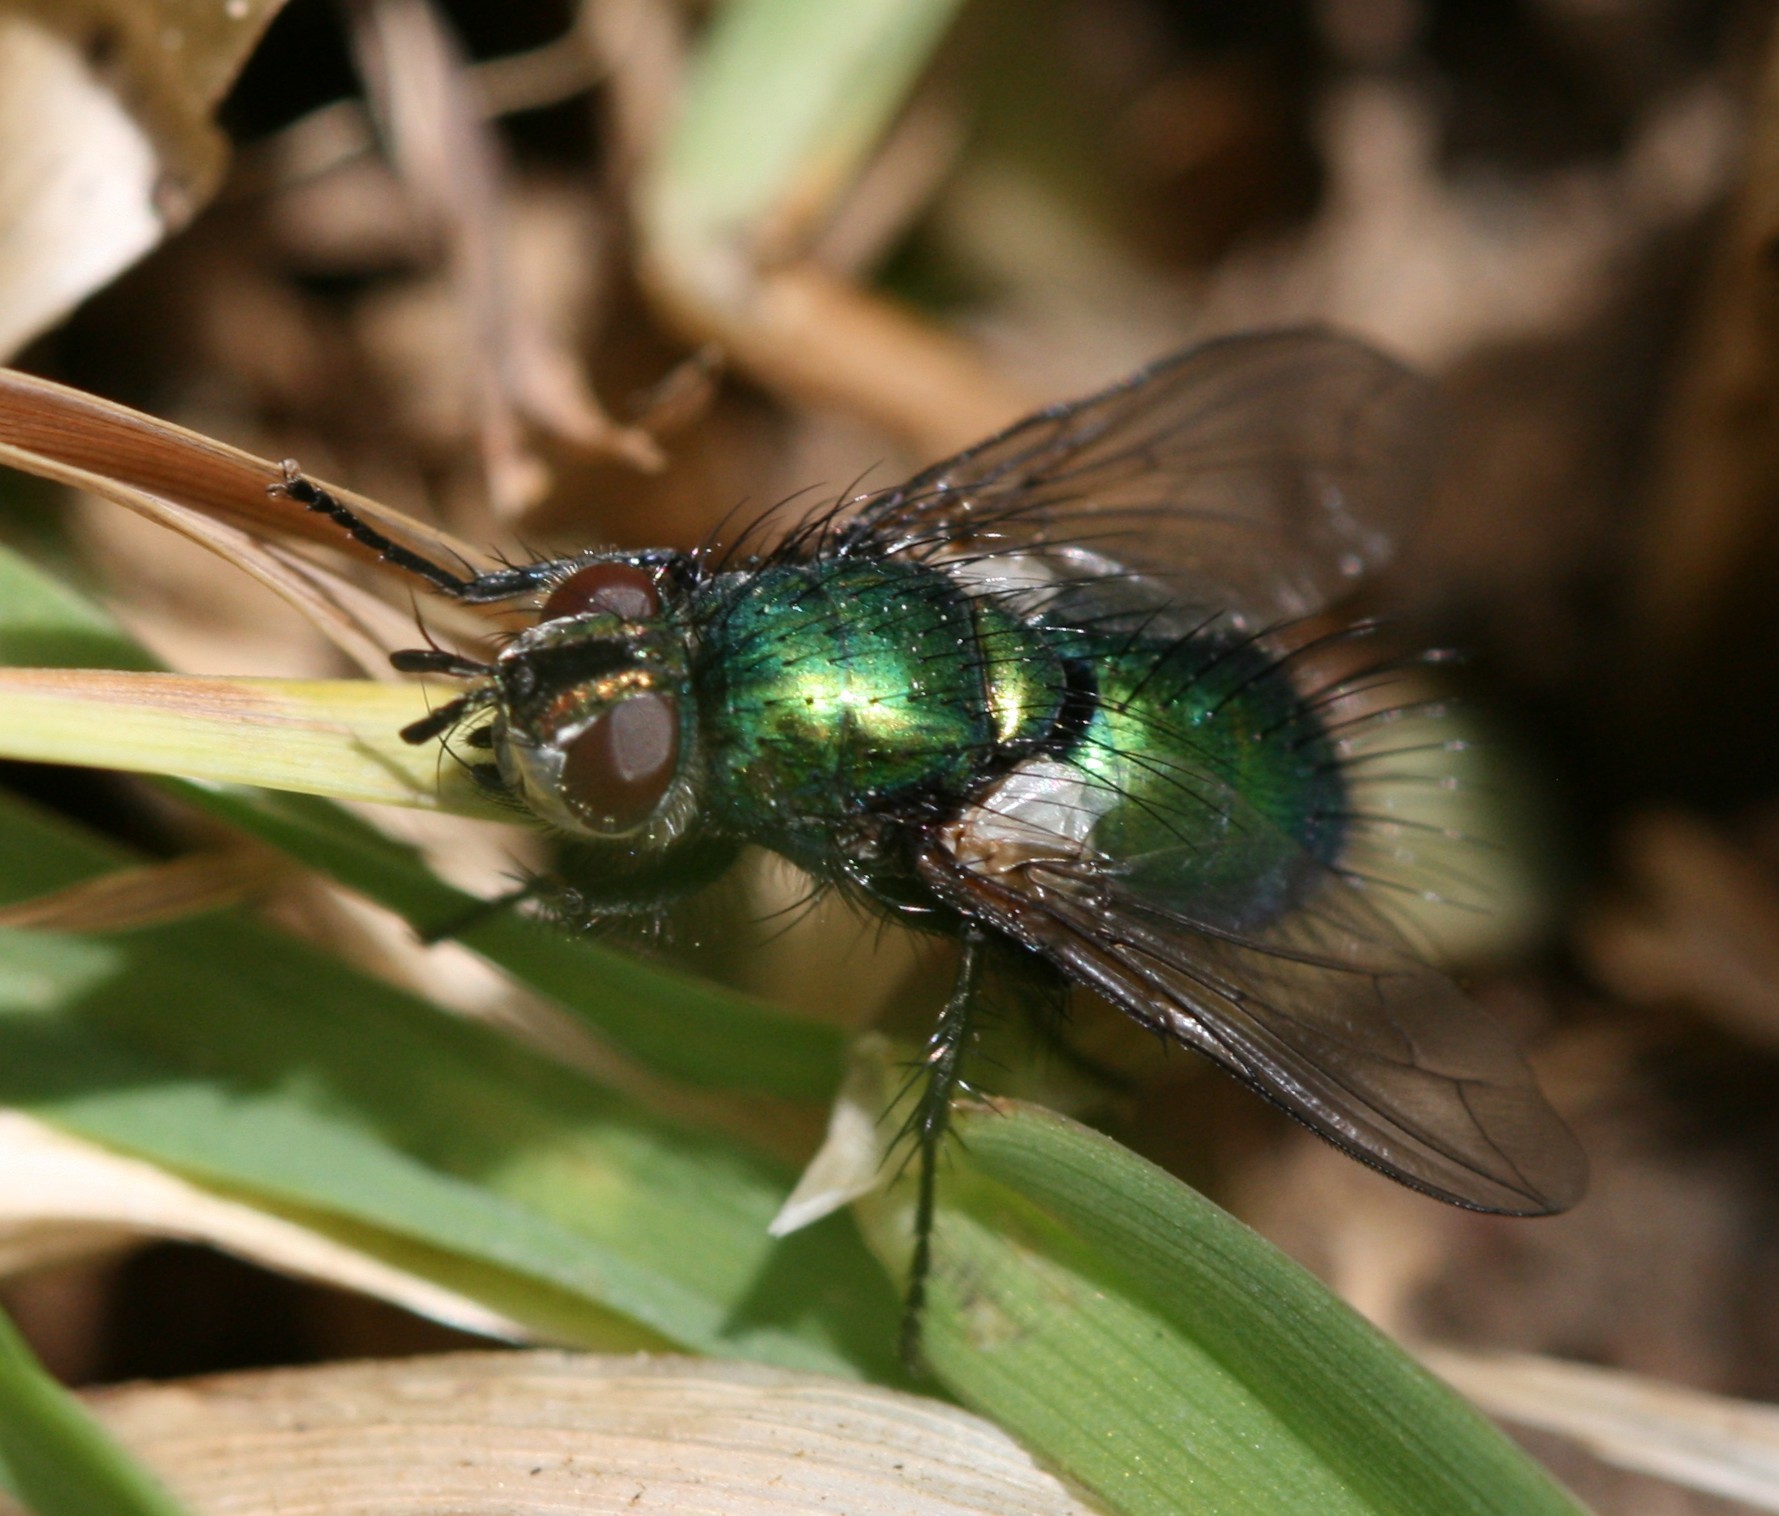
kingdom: Animalia
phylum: Arthropoda
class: Insecta
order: Diptera
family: Tachinidae
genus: Gymnocheta
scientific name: Gymnocheta viridis
